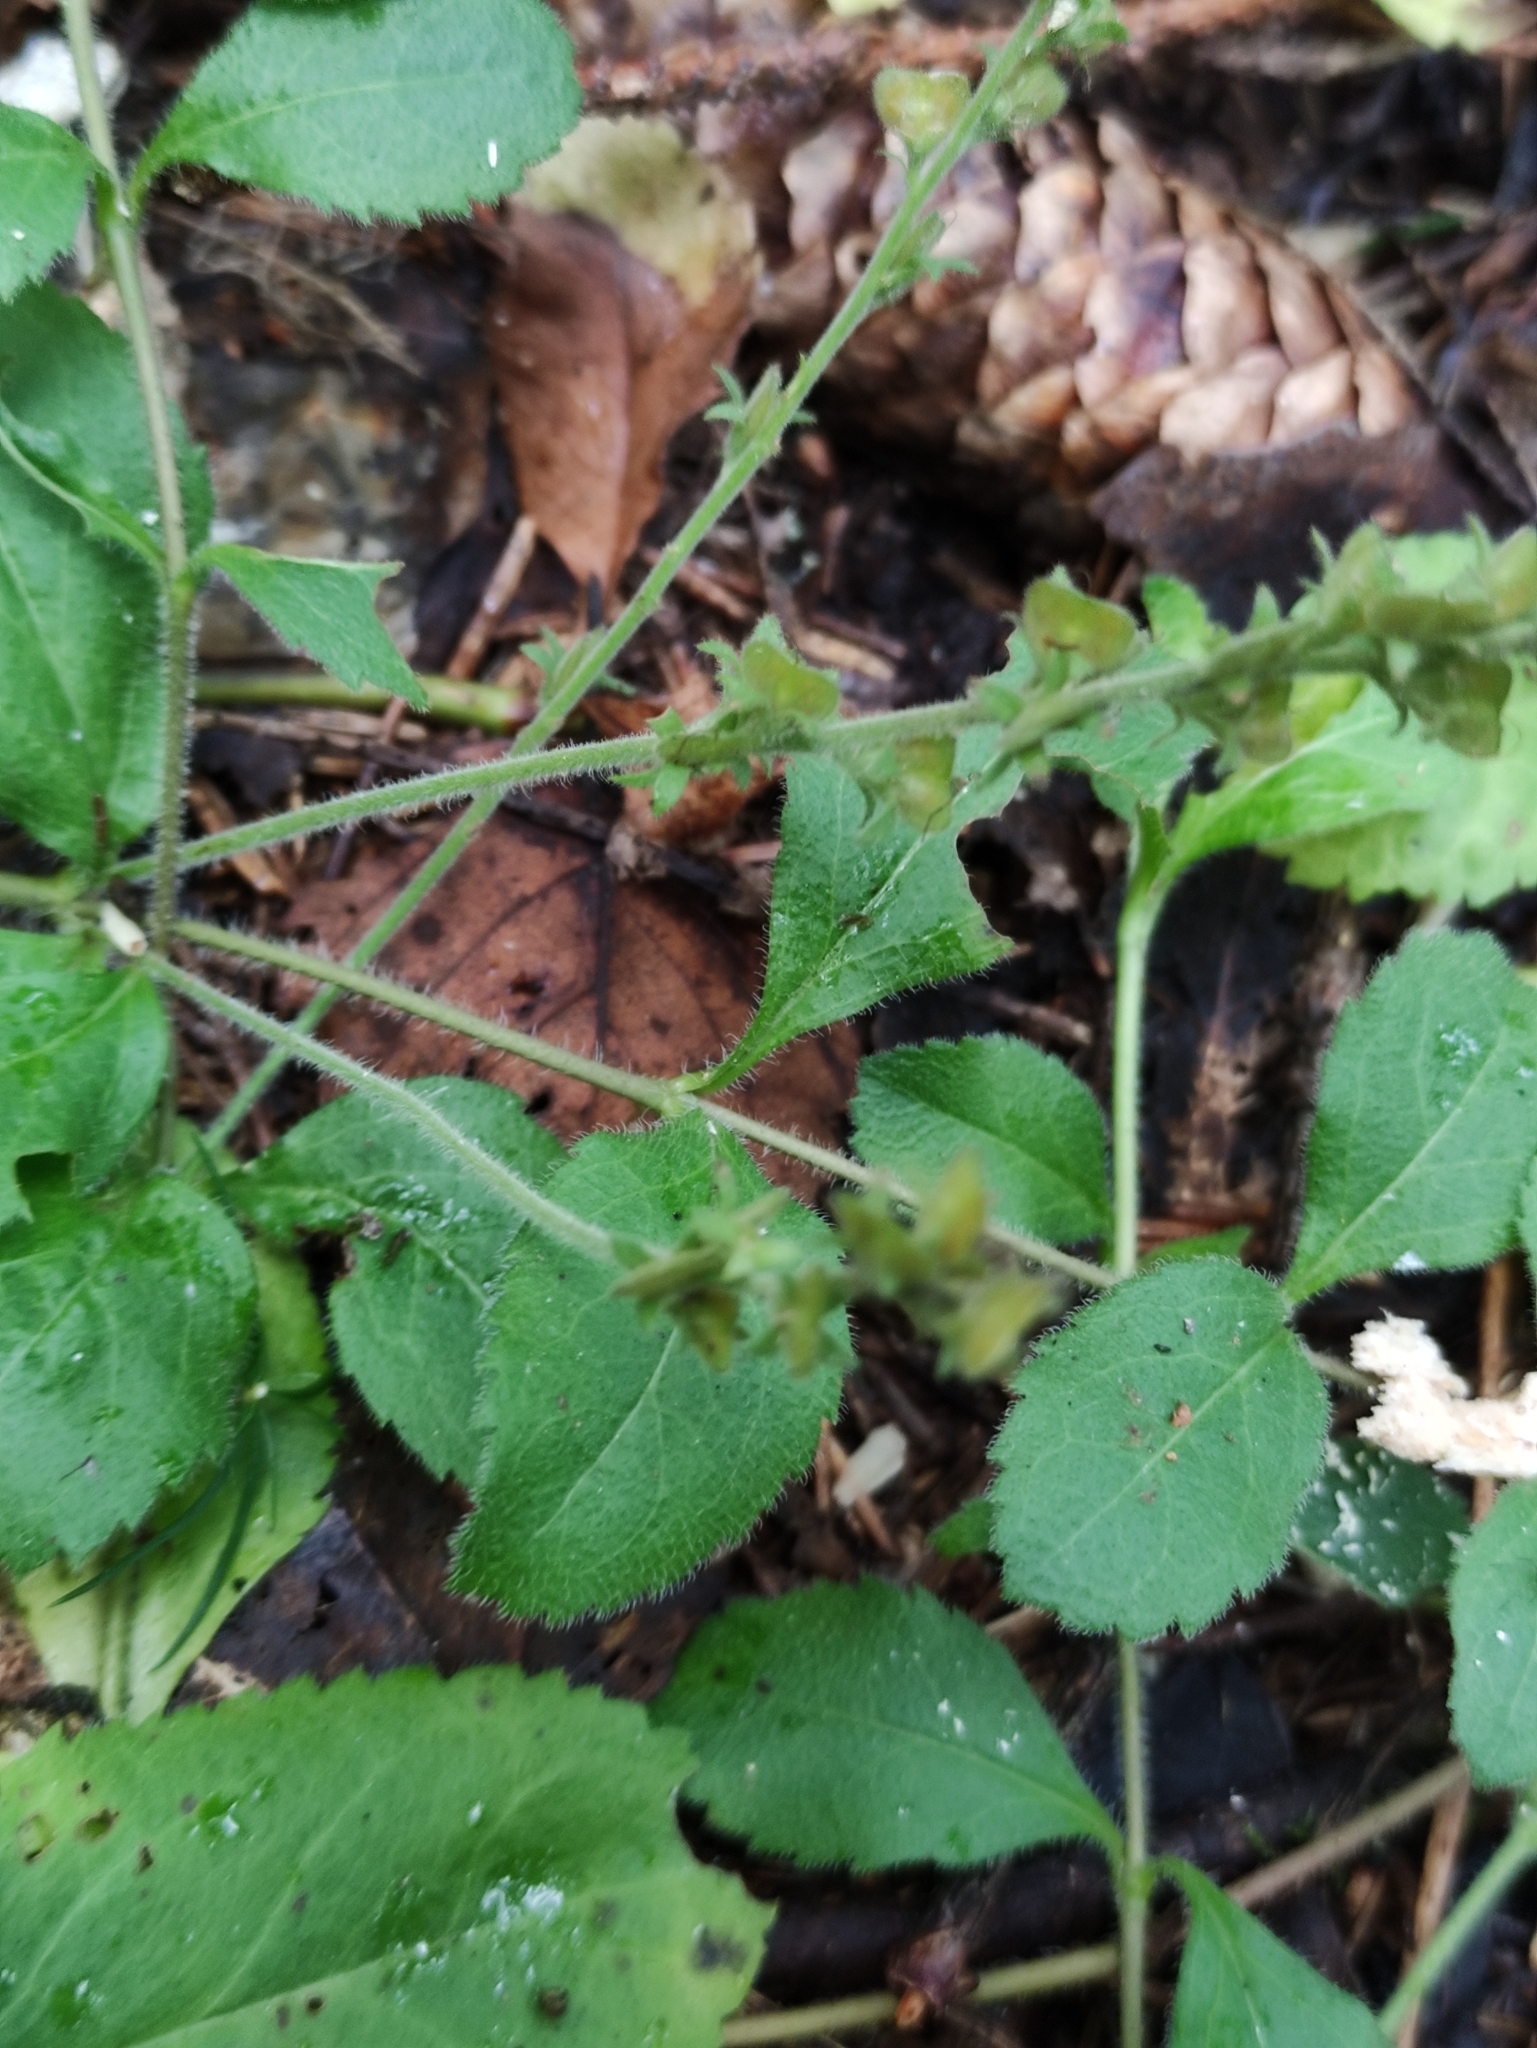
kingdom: Plantae
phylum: Tracheophyta
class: Magnoliopsida
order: Lamiales
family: Plantaginaceae
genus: Veronica
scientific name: Veronica officinalis
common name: Common speedwell
